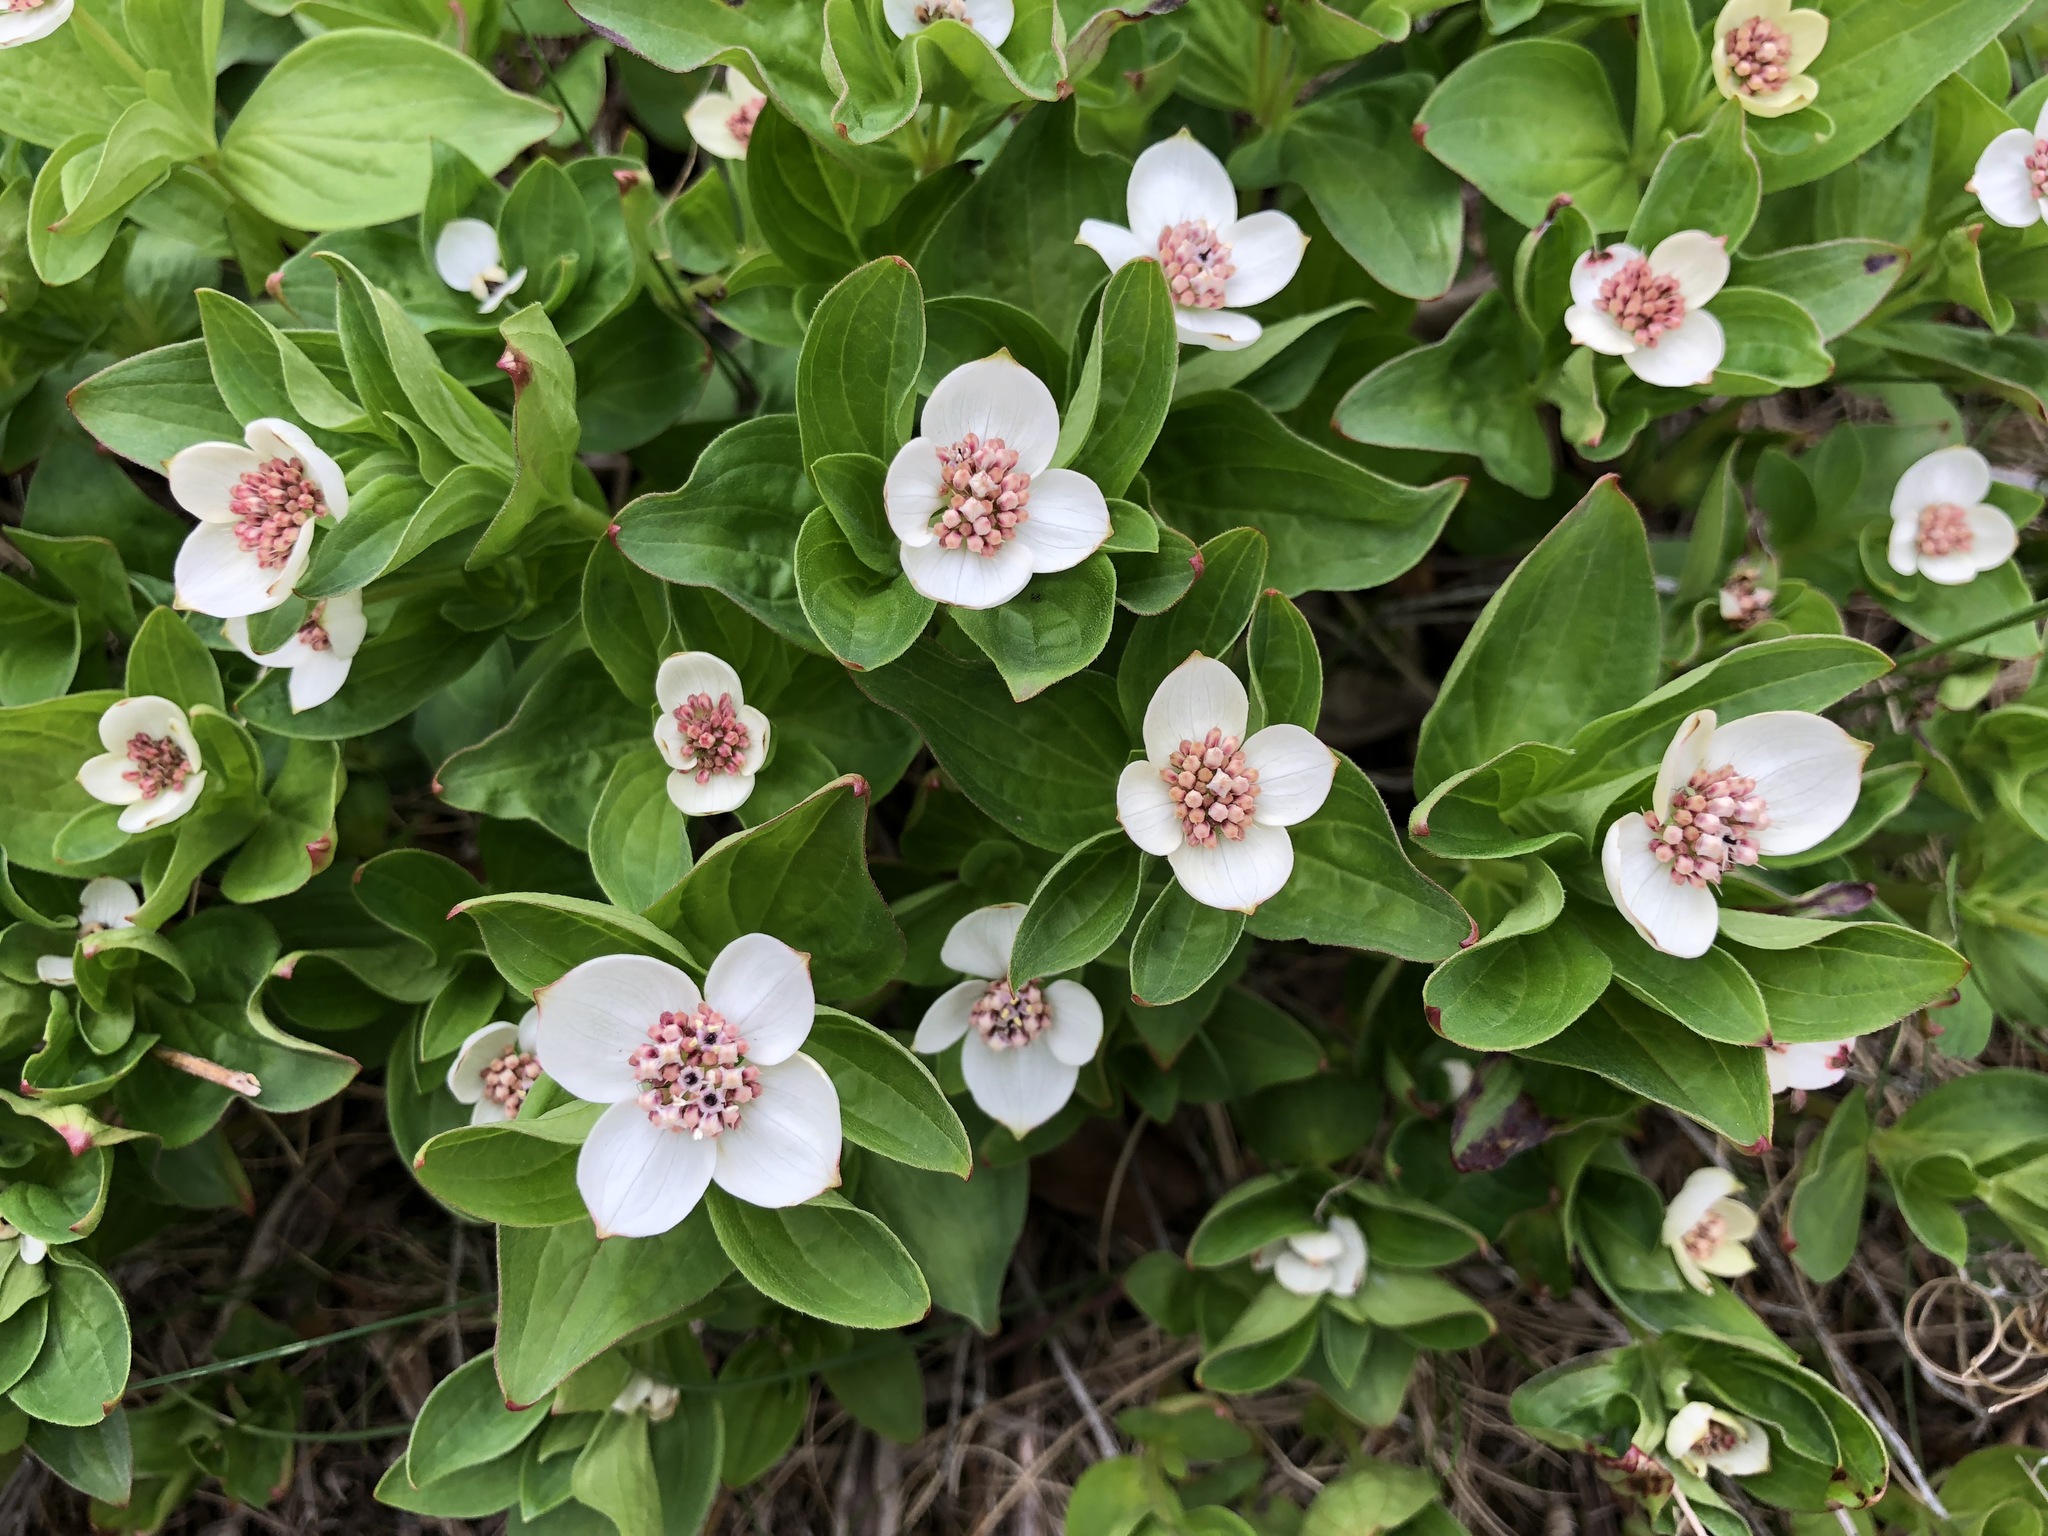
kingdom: Plantae
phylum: Tracheophyta
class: Magnoliopsida
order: Cornales
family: Cornaceae
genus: Cornus
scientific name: Cornus canadensis
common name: Creeping dogwood
